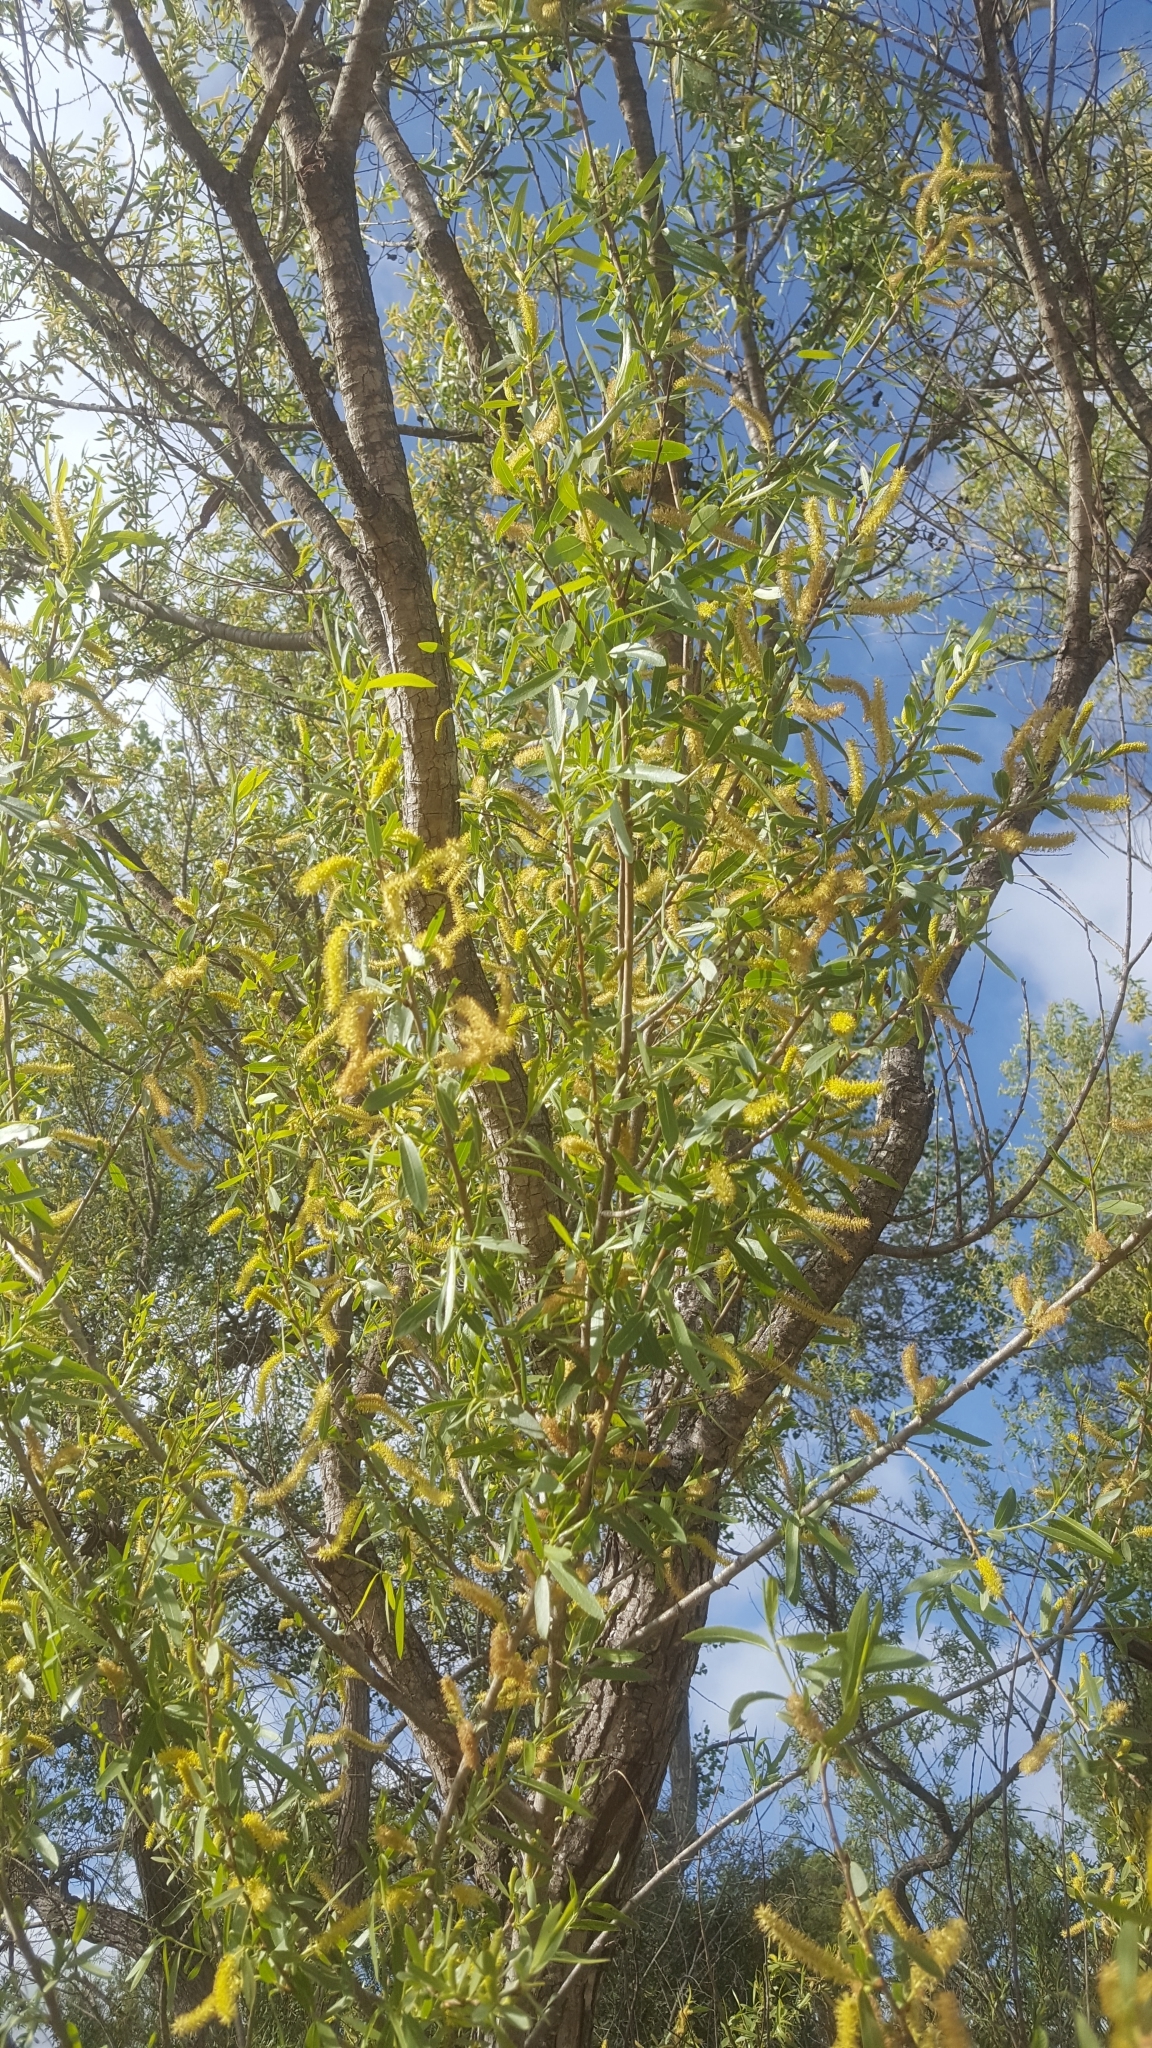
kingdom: Plantae
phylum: Tracheophyta
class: Magnoliopsida
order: Malpighiales
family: Salicaceae
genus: Salix
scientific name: Salix gooddingii
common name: Goodding's willow
